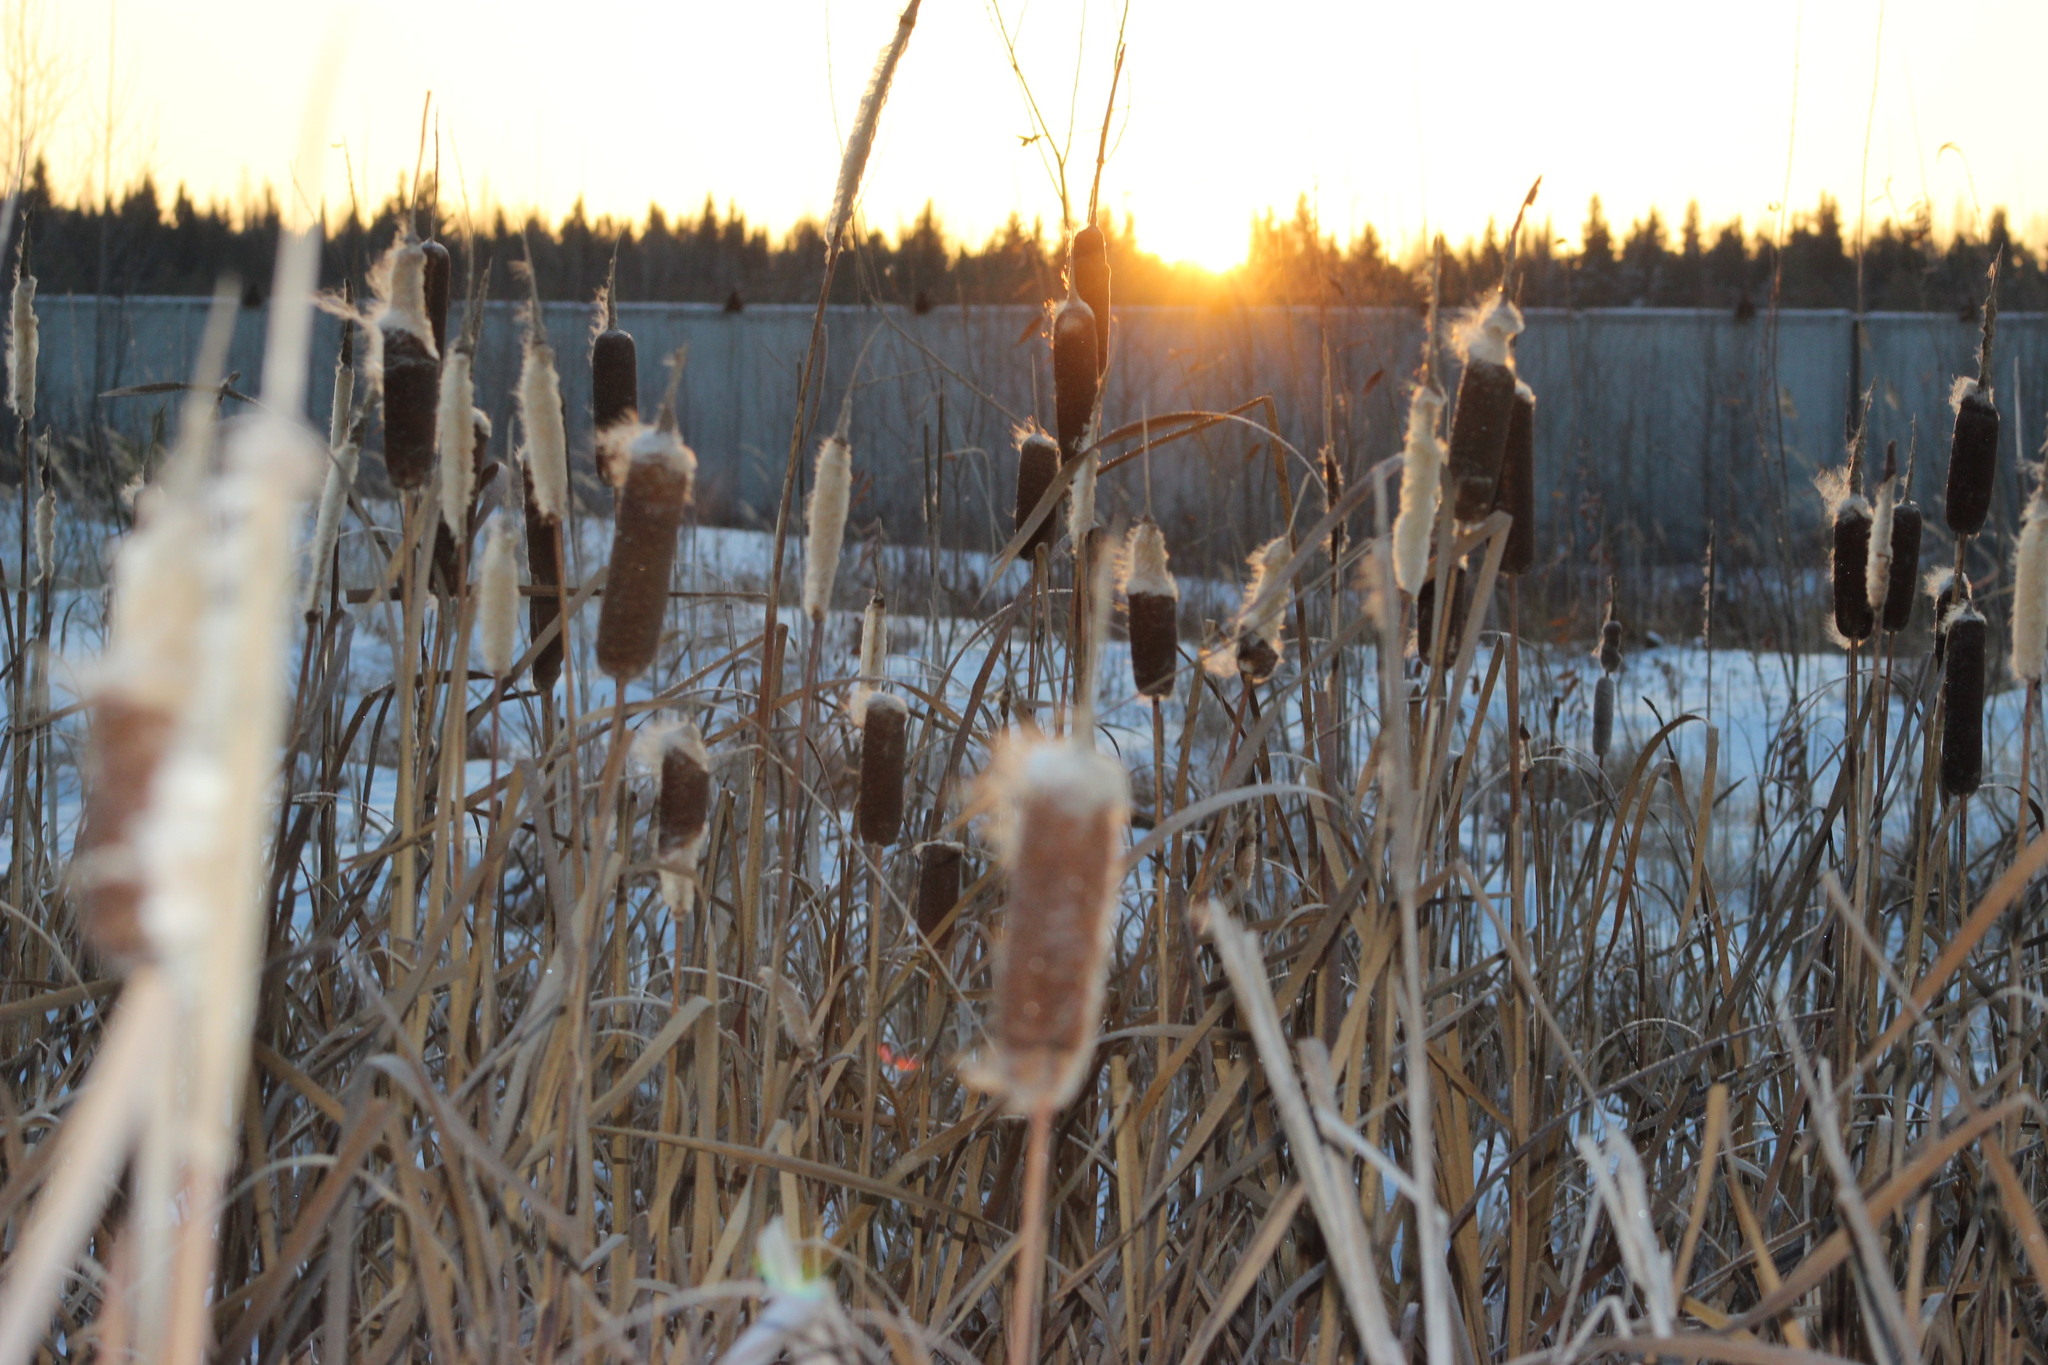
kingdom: Plantae
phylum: Tracheophyta
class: Liliopsida
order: Poales
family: Typhaceae
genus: Typha
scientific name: Typha latifolia
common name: Broadleaf cattail
